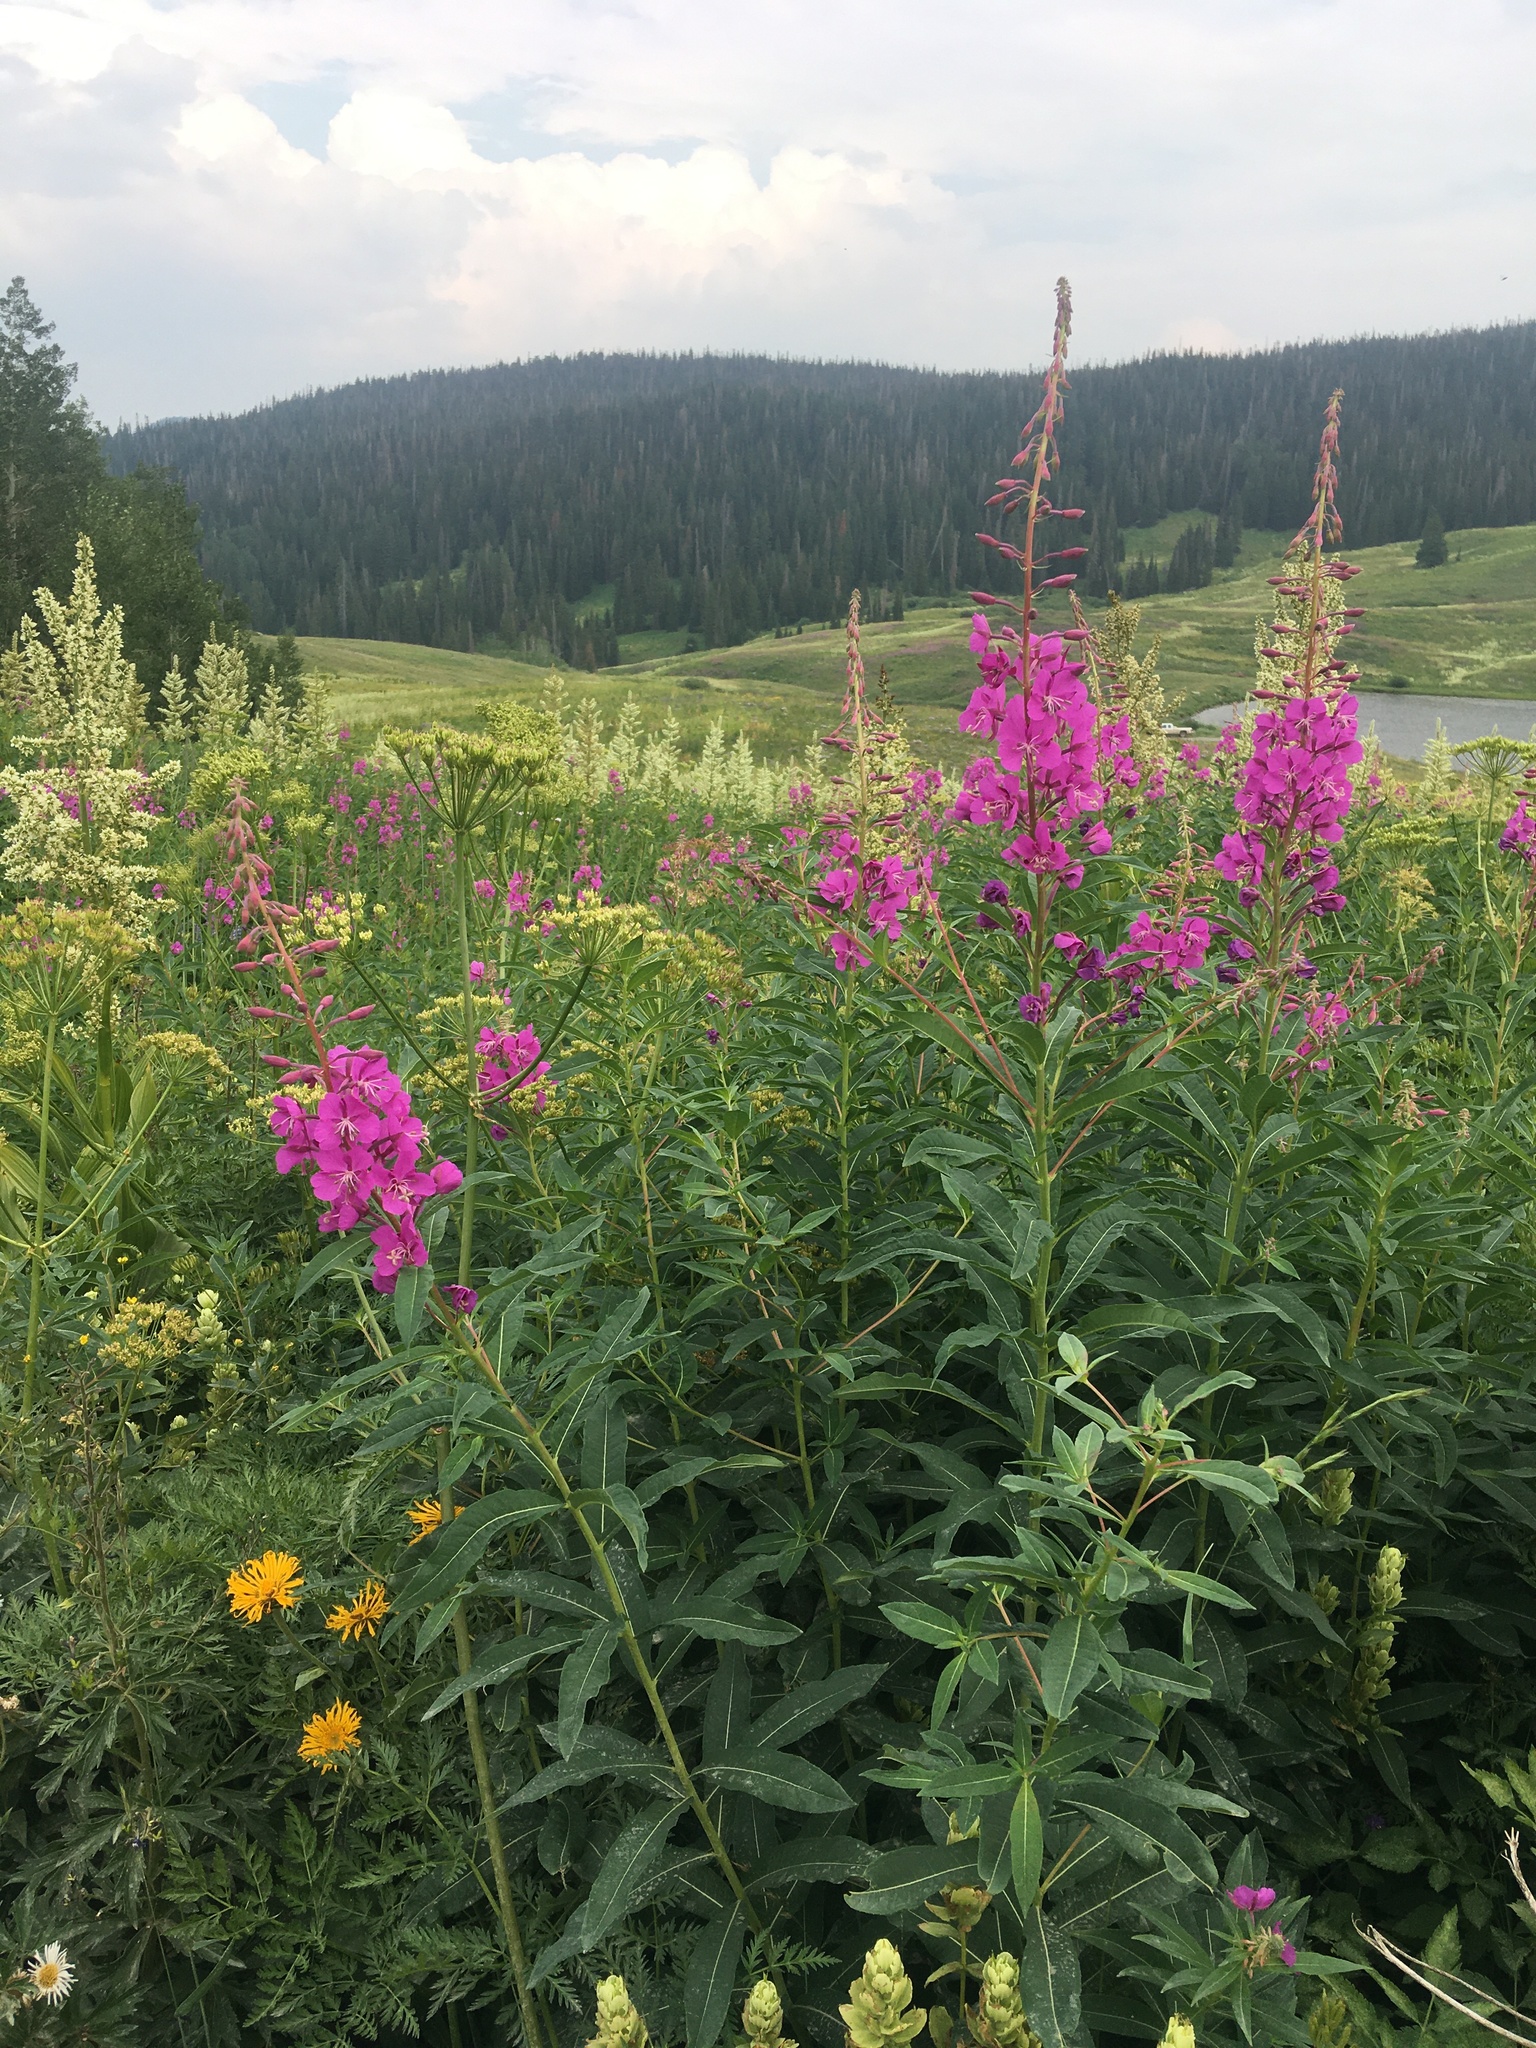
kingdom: Plantae
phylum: Tracheophyta
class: Magnoliopsida
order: Myrtales
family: Onagraceae
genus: Chamaenerion
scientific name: Chamaenerion angustifolium
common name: Fireweed
